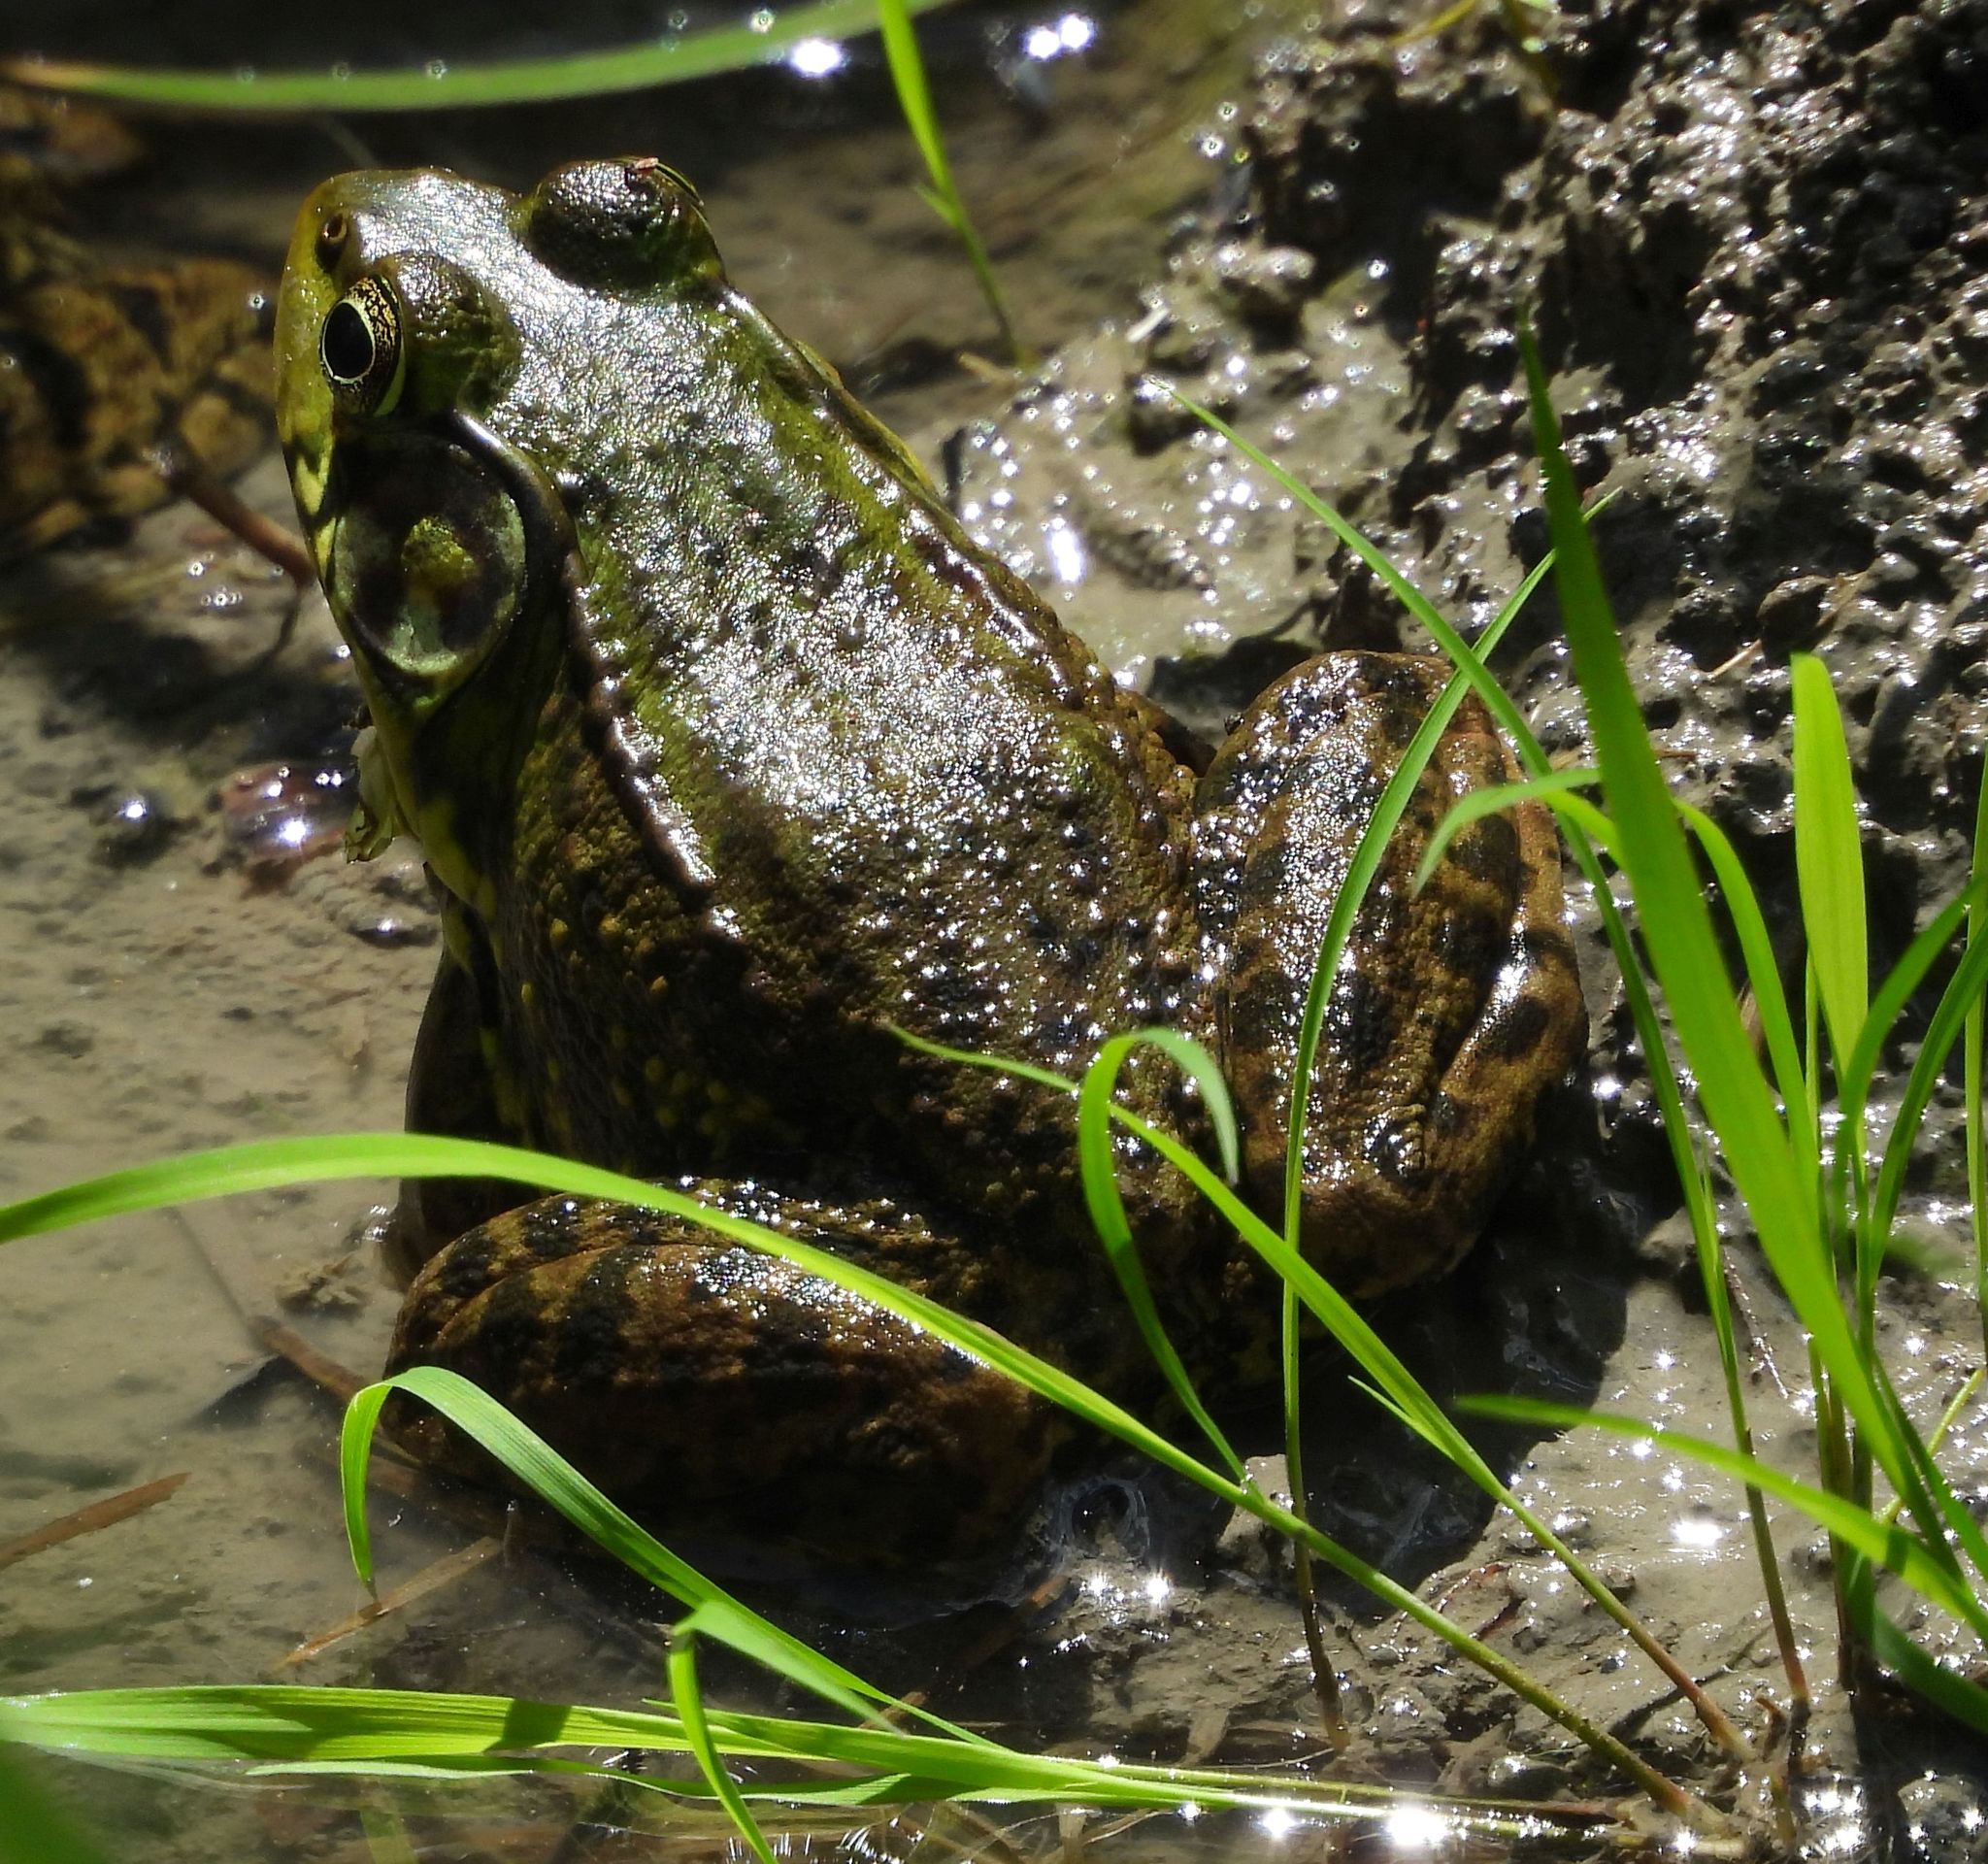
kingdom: Animalia
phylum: Chordata
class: Amphibia
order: Anura
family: Ranidae
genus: Lithobates
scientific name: Lithobates clamitans
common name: Green frog
